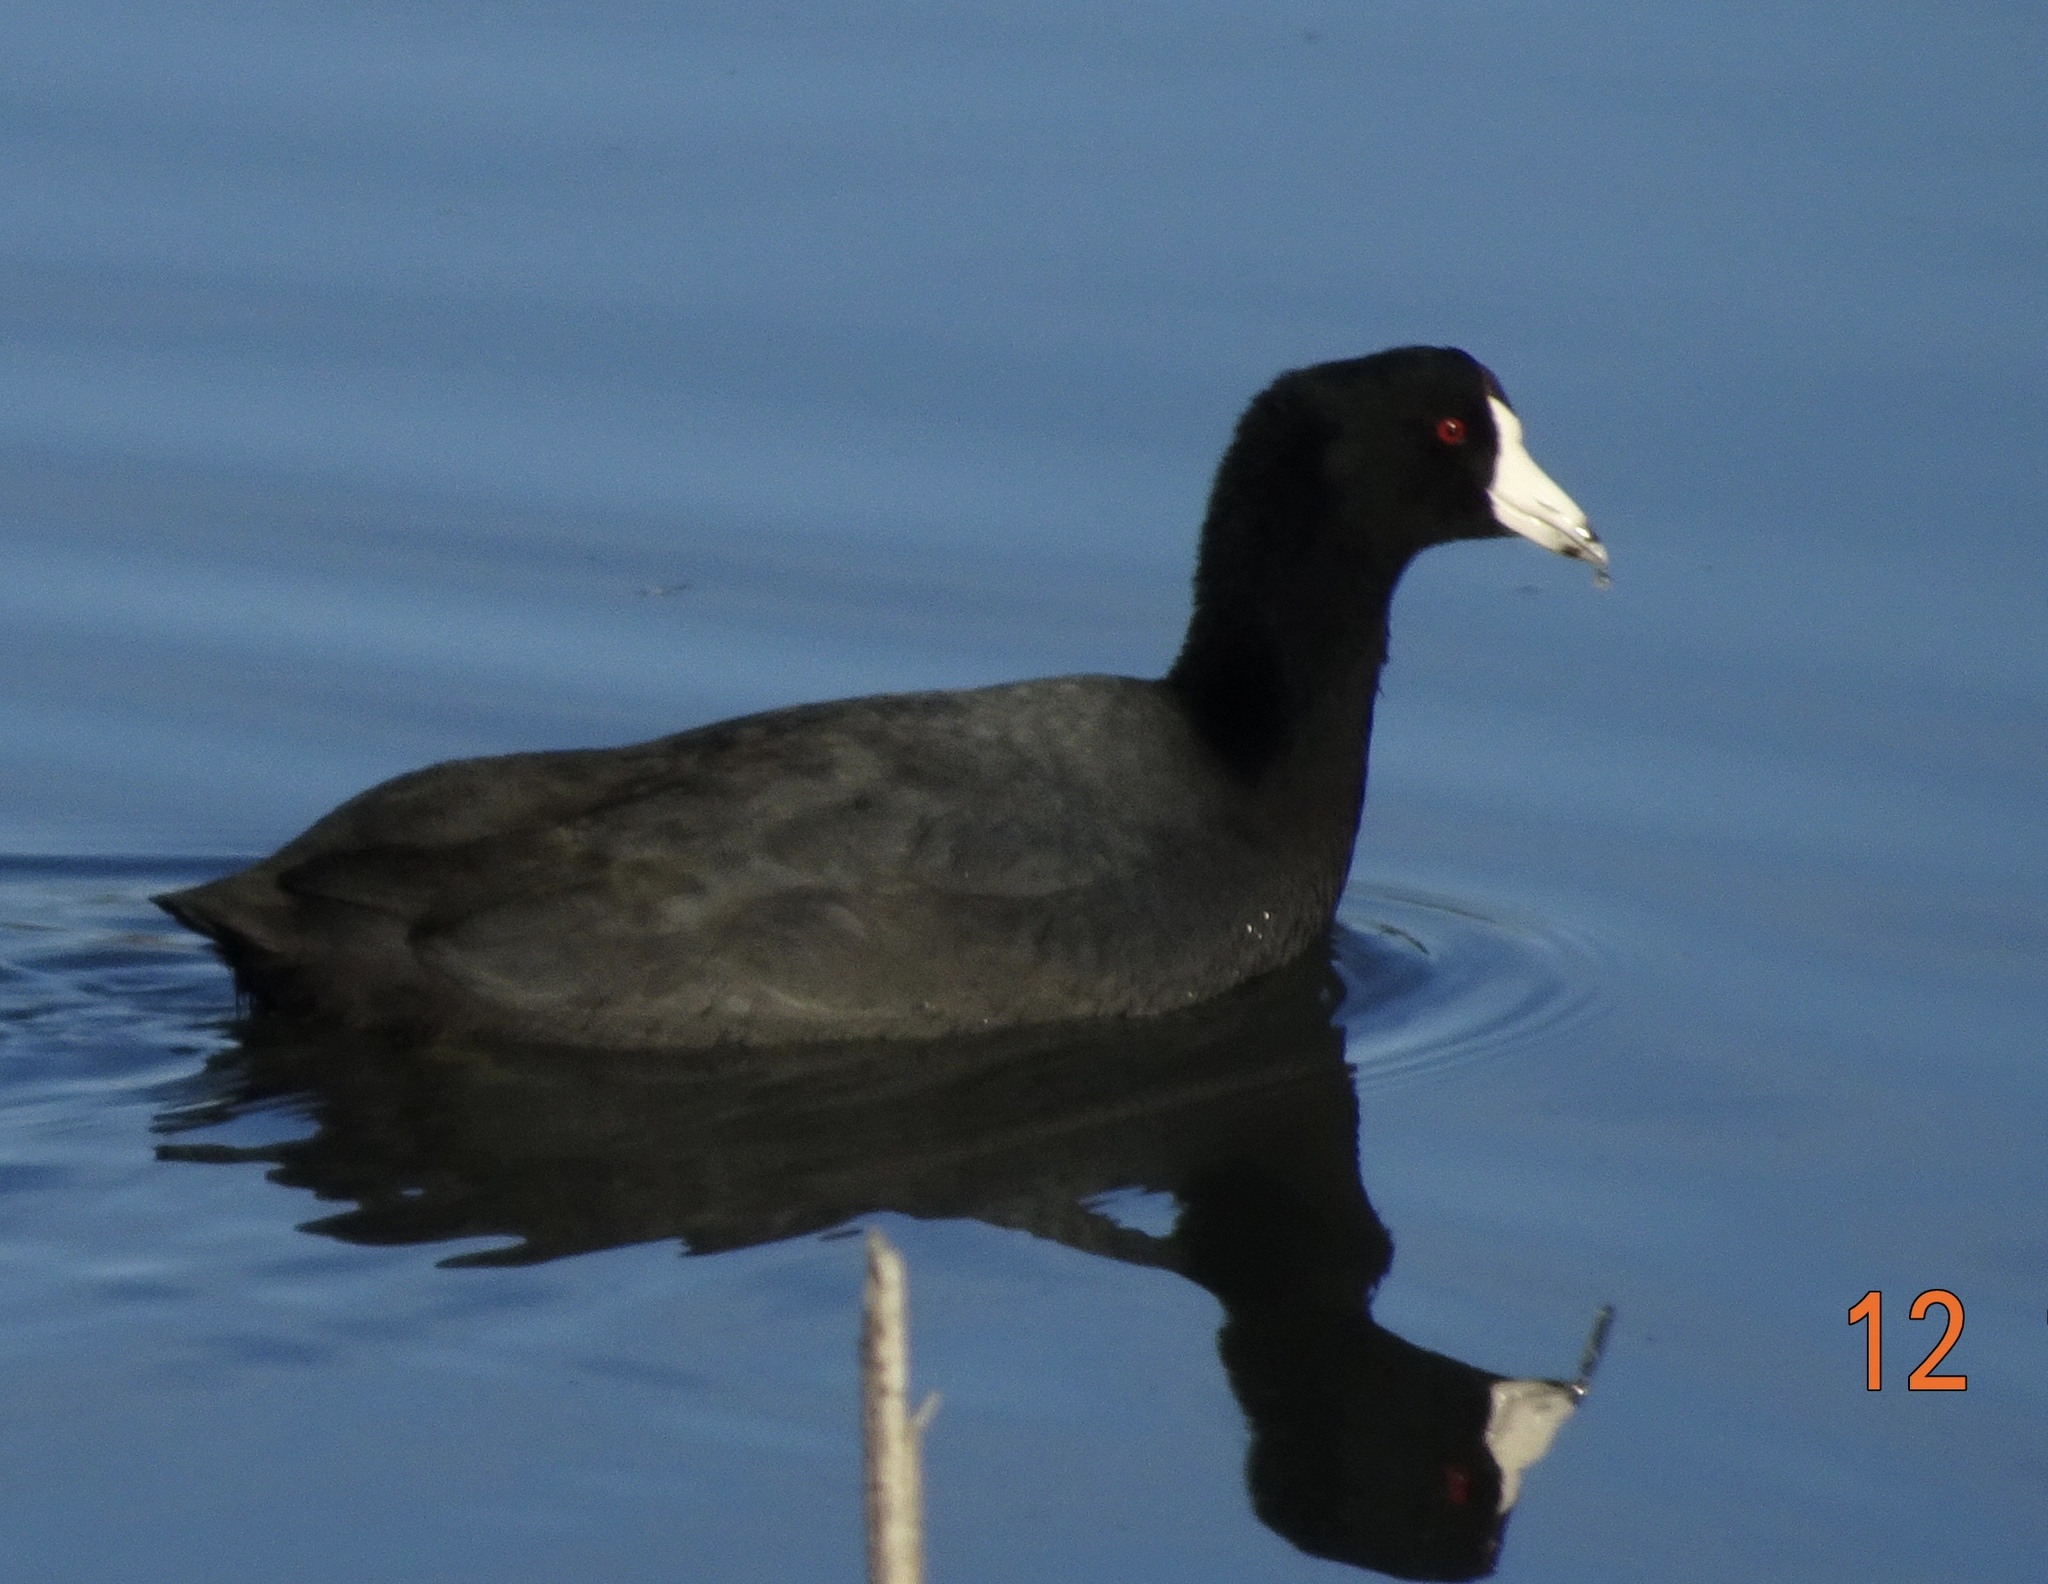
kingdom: Animalia
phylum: Chordata
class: Aves
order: Gruiformes
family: Rallidae
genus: Fulica
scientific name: Fulica americana
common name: American coot
